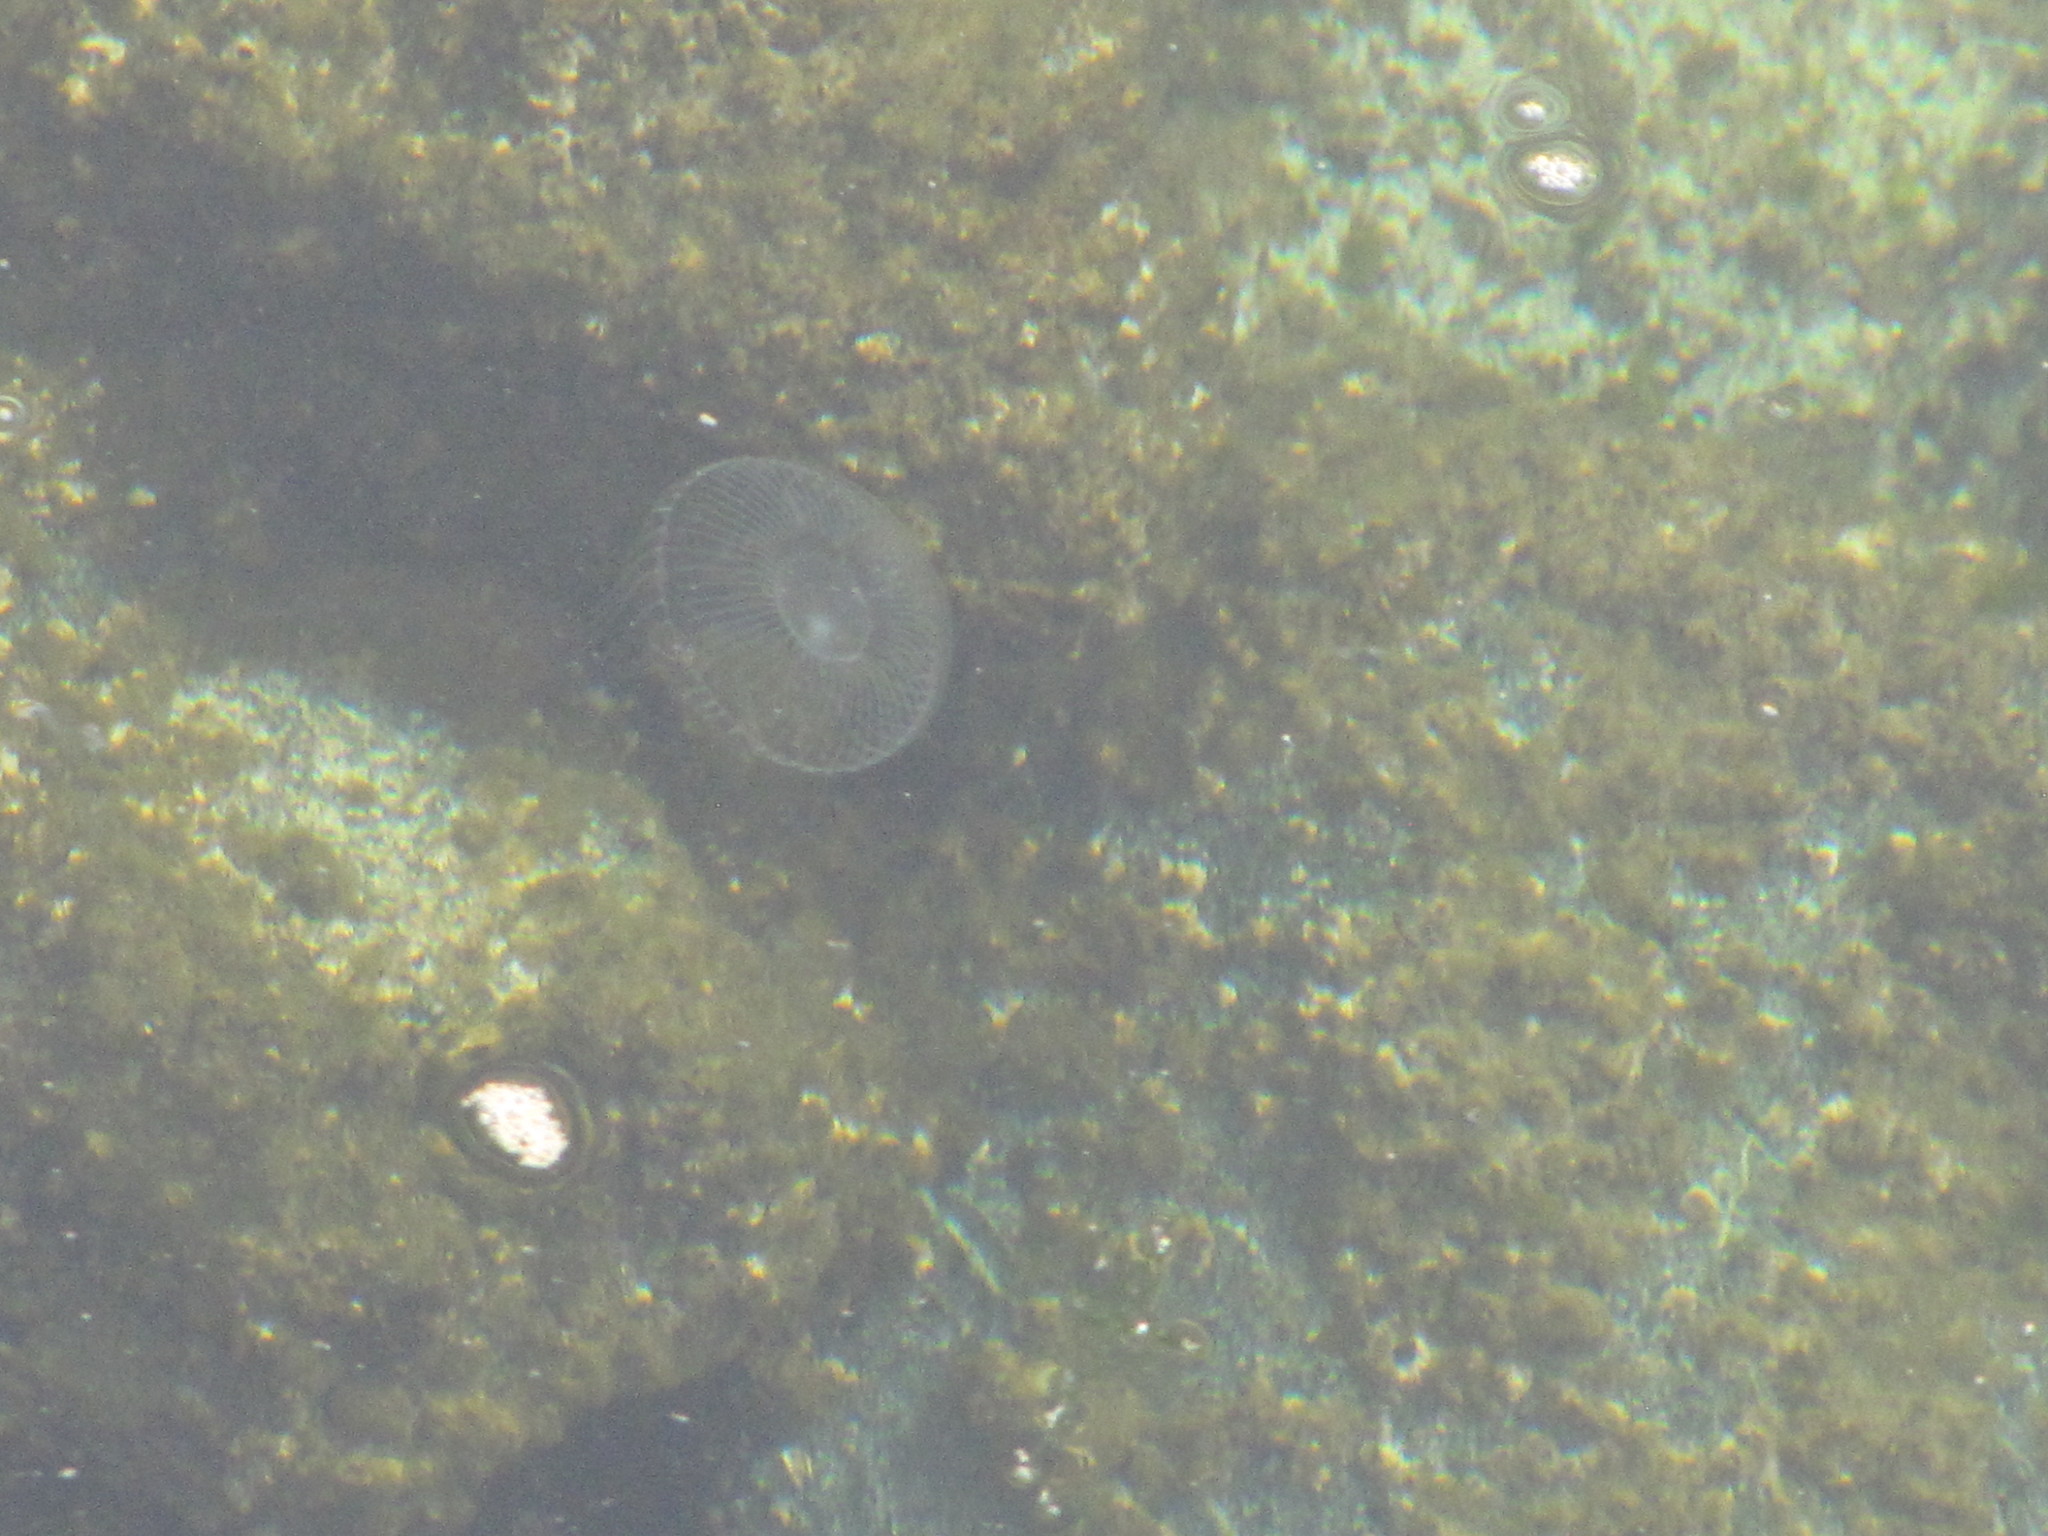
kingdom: Animalia
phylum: Cnidaria
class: Hydrozoa
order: Leptothecata
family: Aequoreidae
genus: Aequorea
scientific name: Aequorea victoria
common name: Water jellyfish
